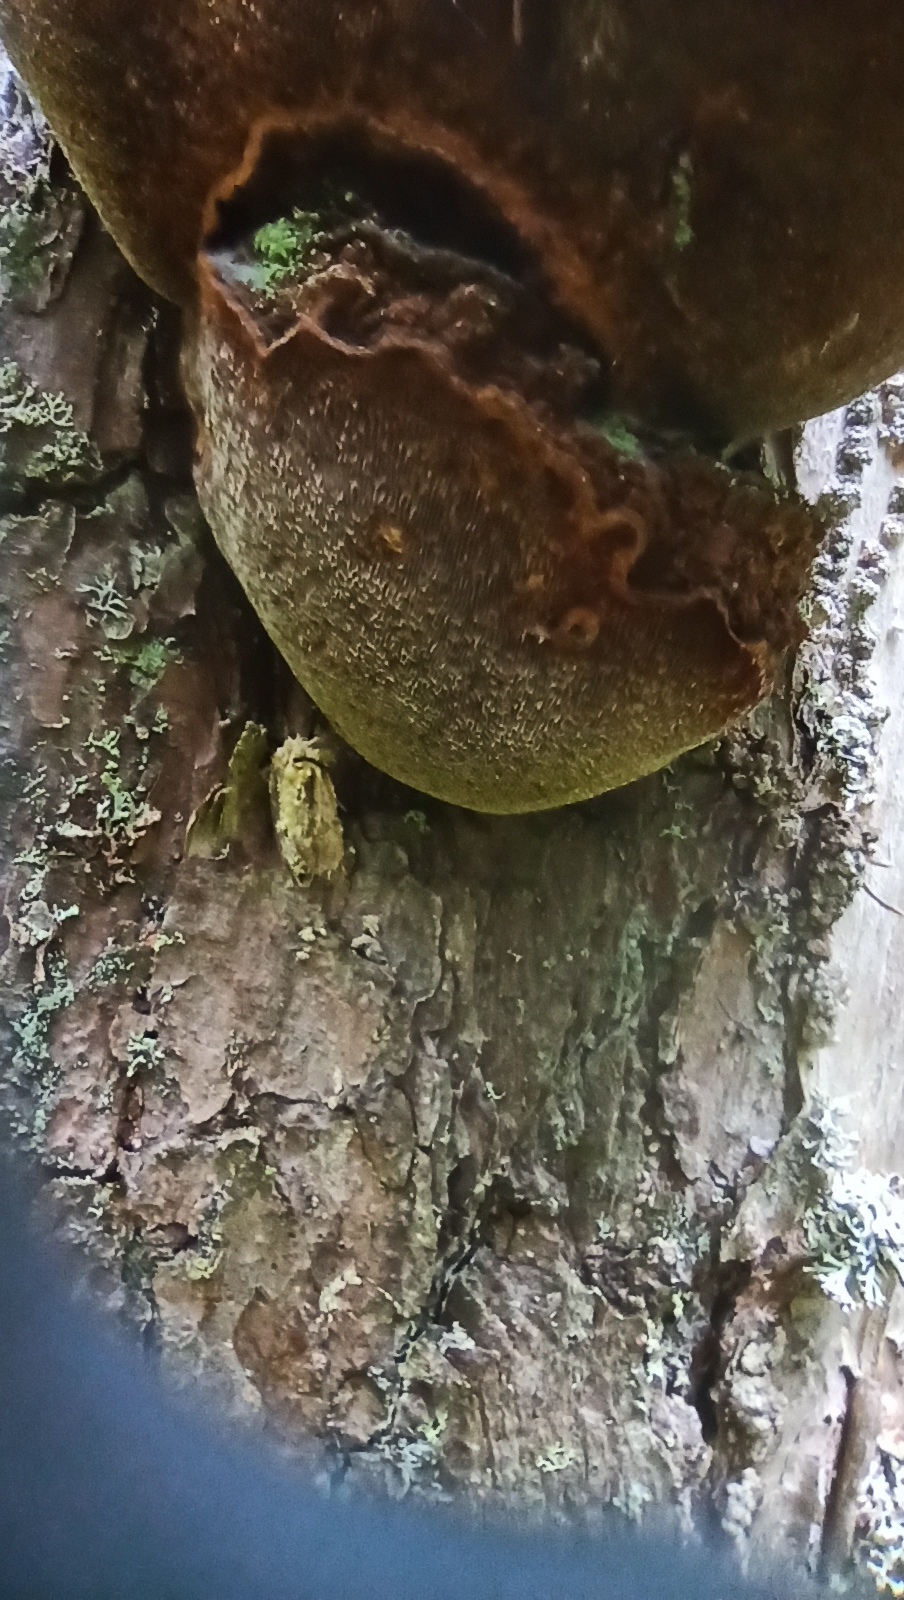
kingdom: Fungi
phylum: Basidiomycota
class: Agaricomycetes
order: Hymenochaetales
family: Hymenochaetaceae
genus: Porodaedalea
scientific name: Porodaedalea pini
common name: Pine bracket
